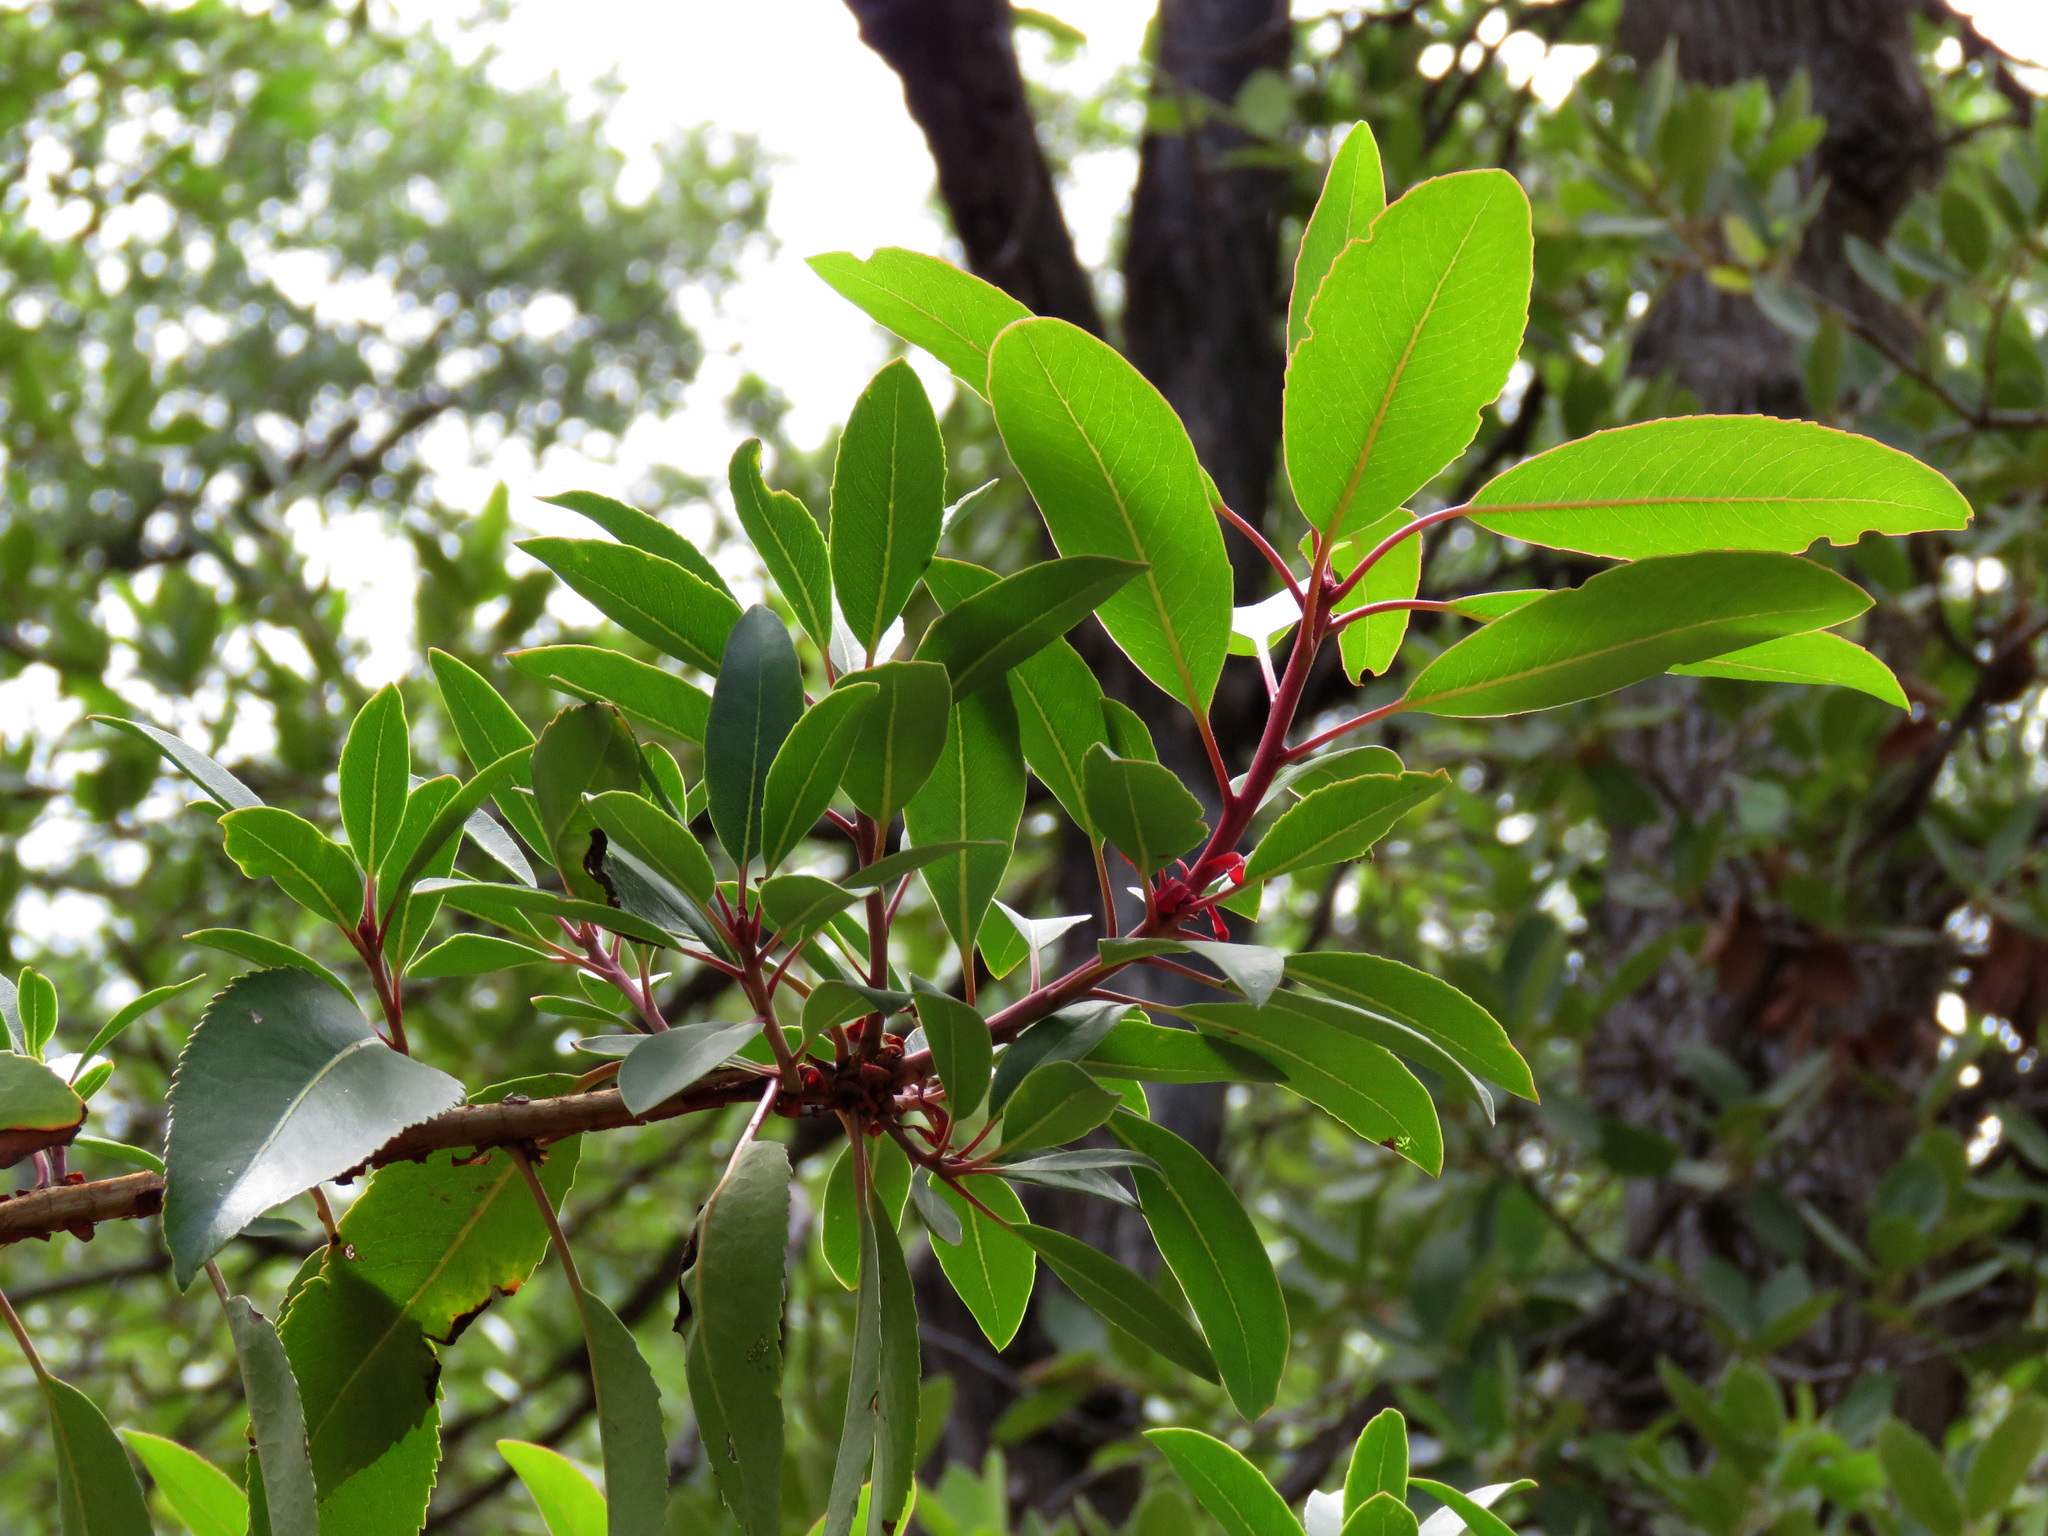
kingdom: Plantae
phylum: Tracheophyta
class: Magnoliopsida
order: Ericales
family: Ericaceae
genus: Arbutus
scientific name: Arbutus arizonica
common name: Arizona madrone
